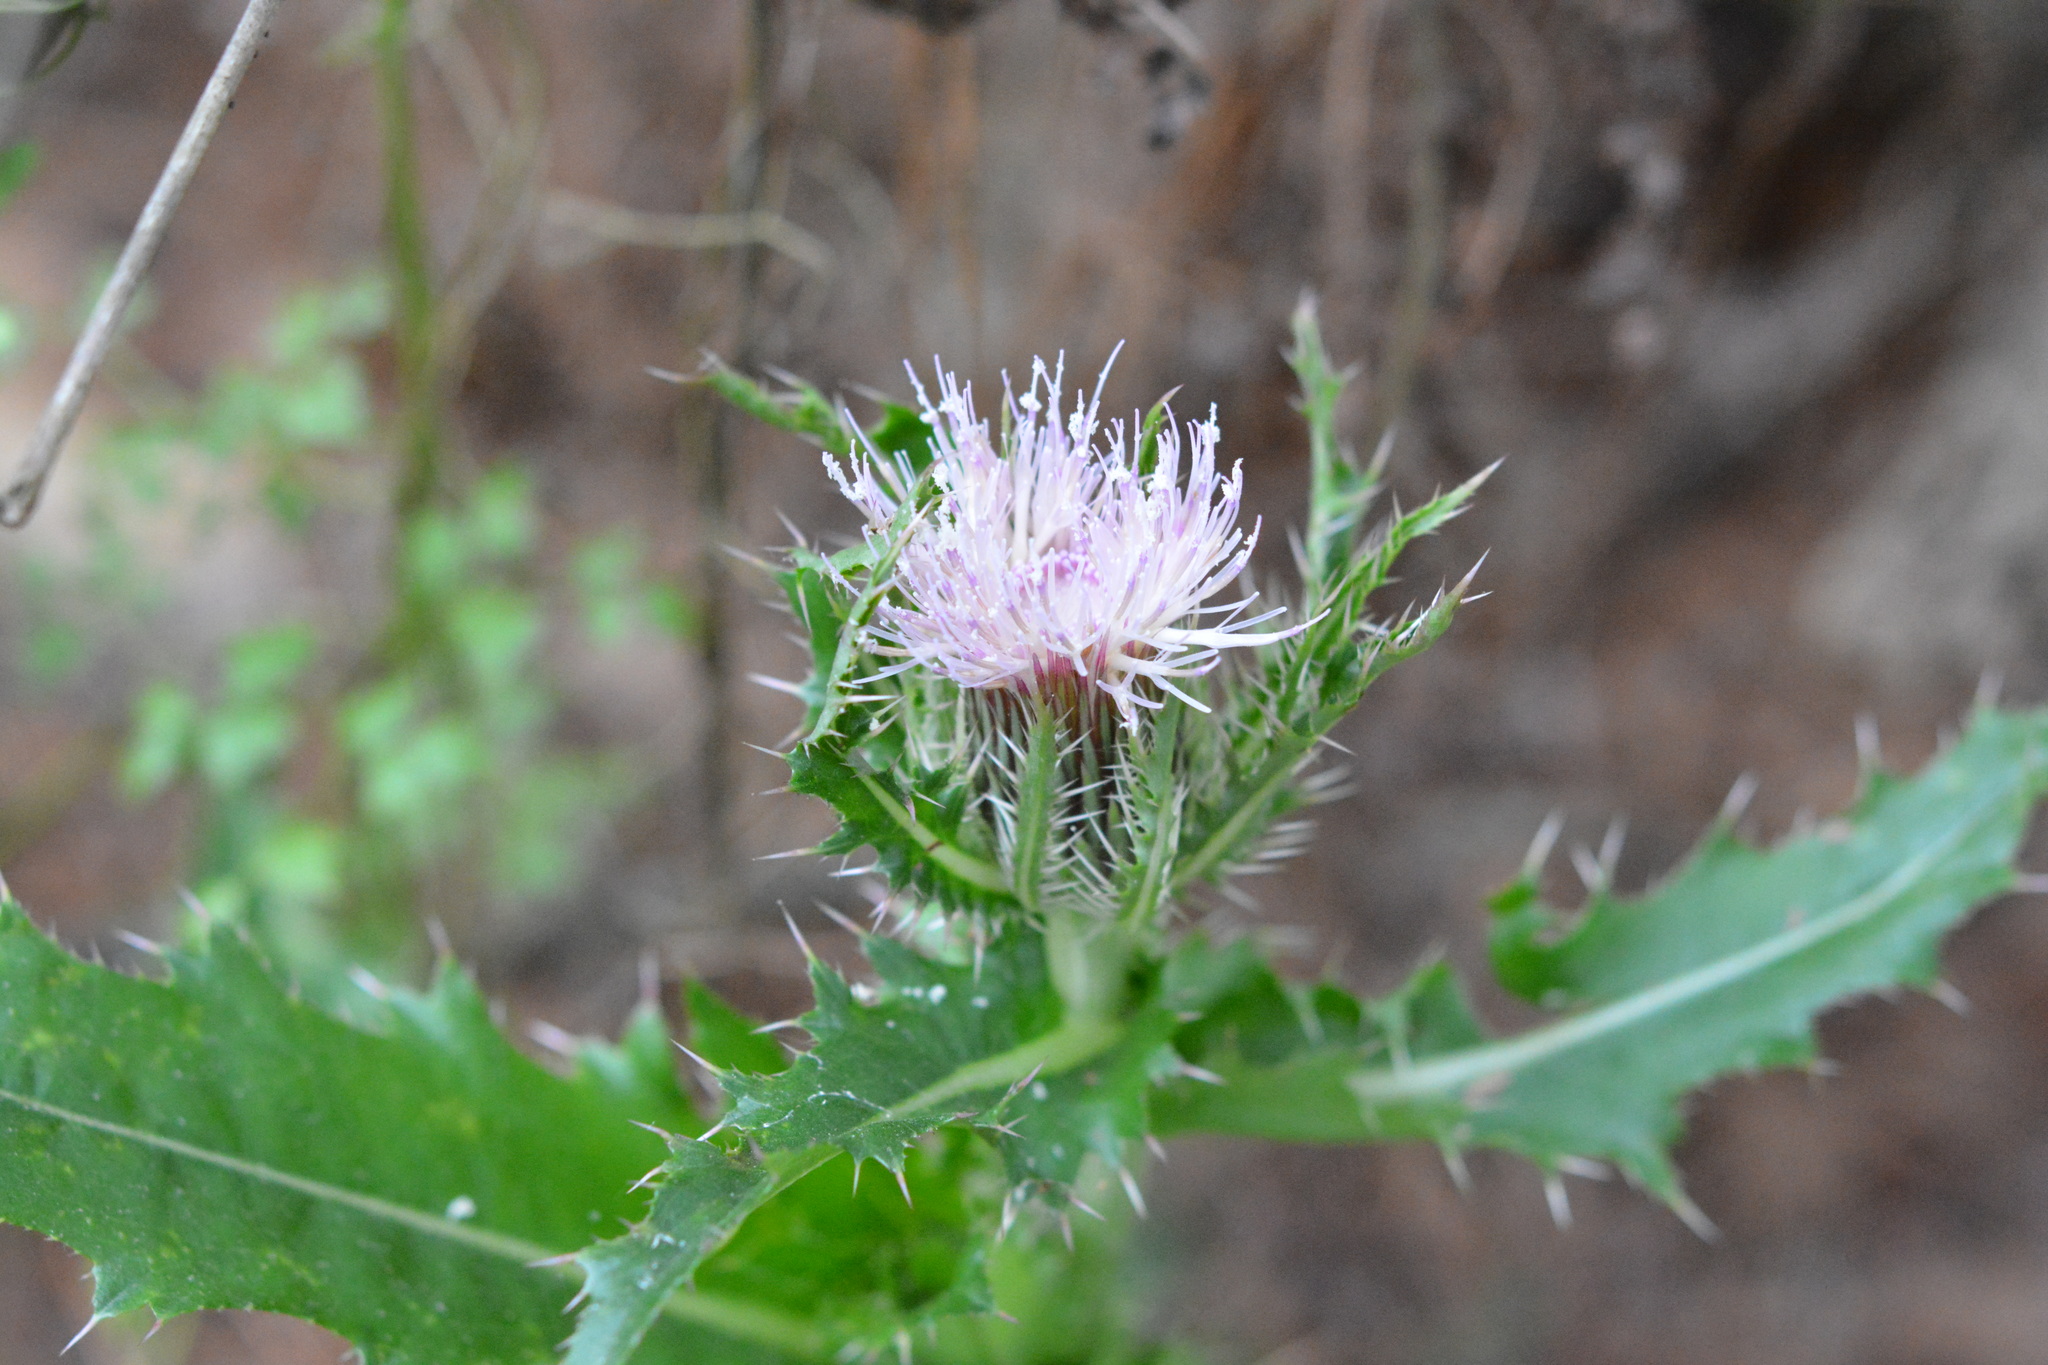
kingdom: Plantae
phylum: Tracheophyta
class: Magnoliopsida
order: Asterales
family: Asteraceae
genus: Cirsium
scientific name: Cirsium horridulum
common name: Bristly thistle
